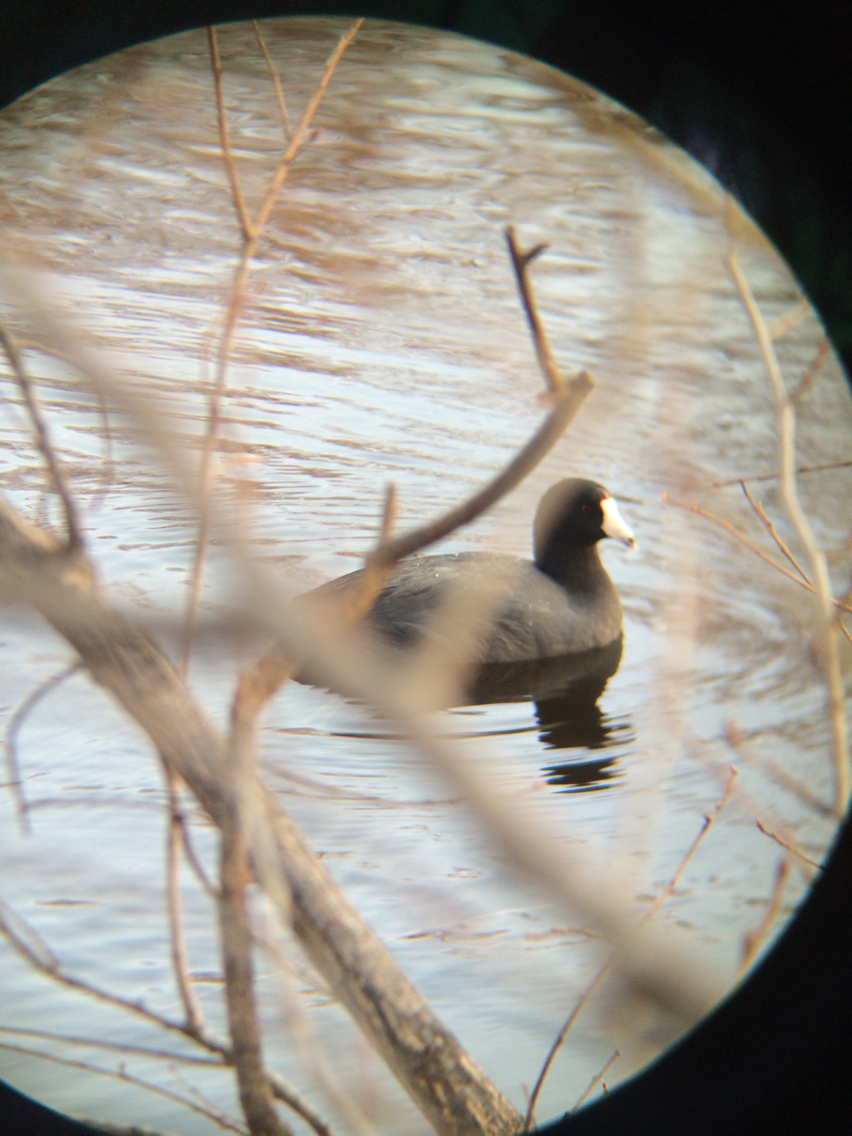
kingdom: Animalia
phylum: Chordata
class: Aves
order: Gruiformes
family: Rallidae
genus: Fulica
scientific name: Fulica americana
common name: American coot
